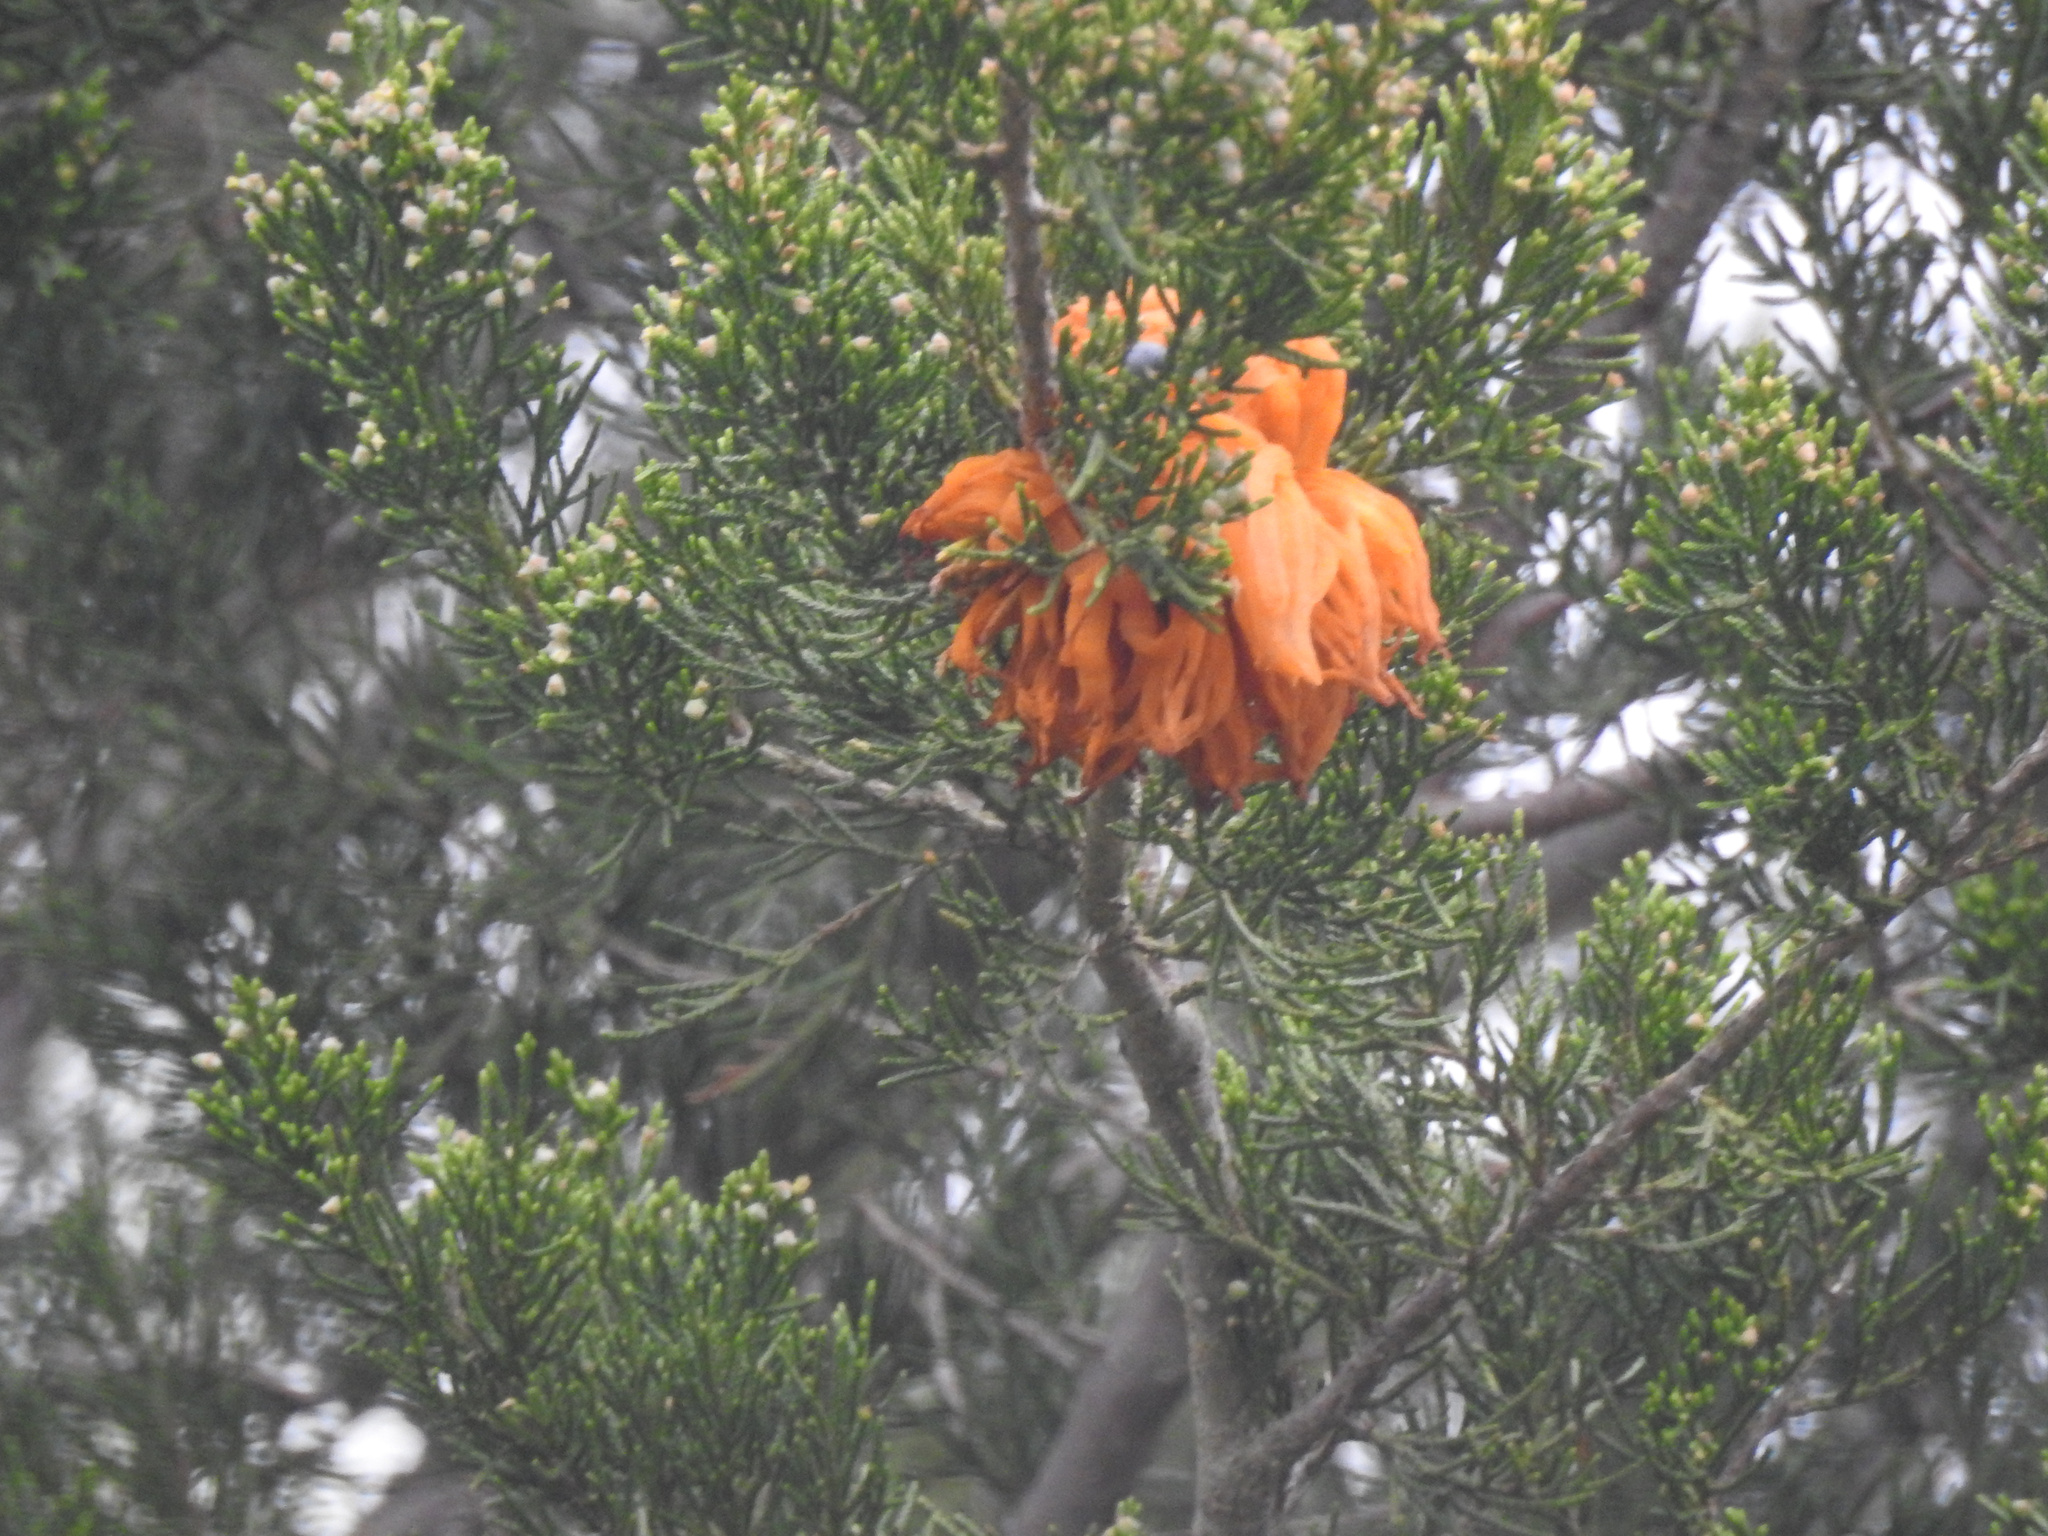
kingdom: Fungi
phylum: Basidiomycota
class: Pucciniomycetes
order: Pucciniales
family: Gymnosporangiaceae
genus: Gymnosporangium
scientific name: Gymnosporangium juniperi-virginianae
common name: Juniper-apple rust
